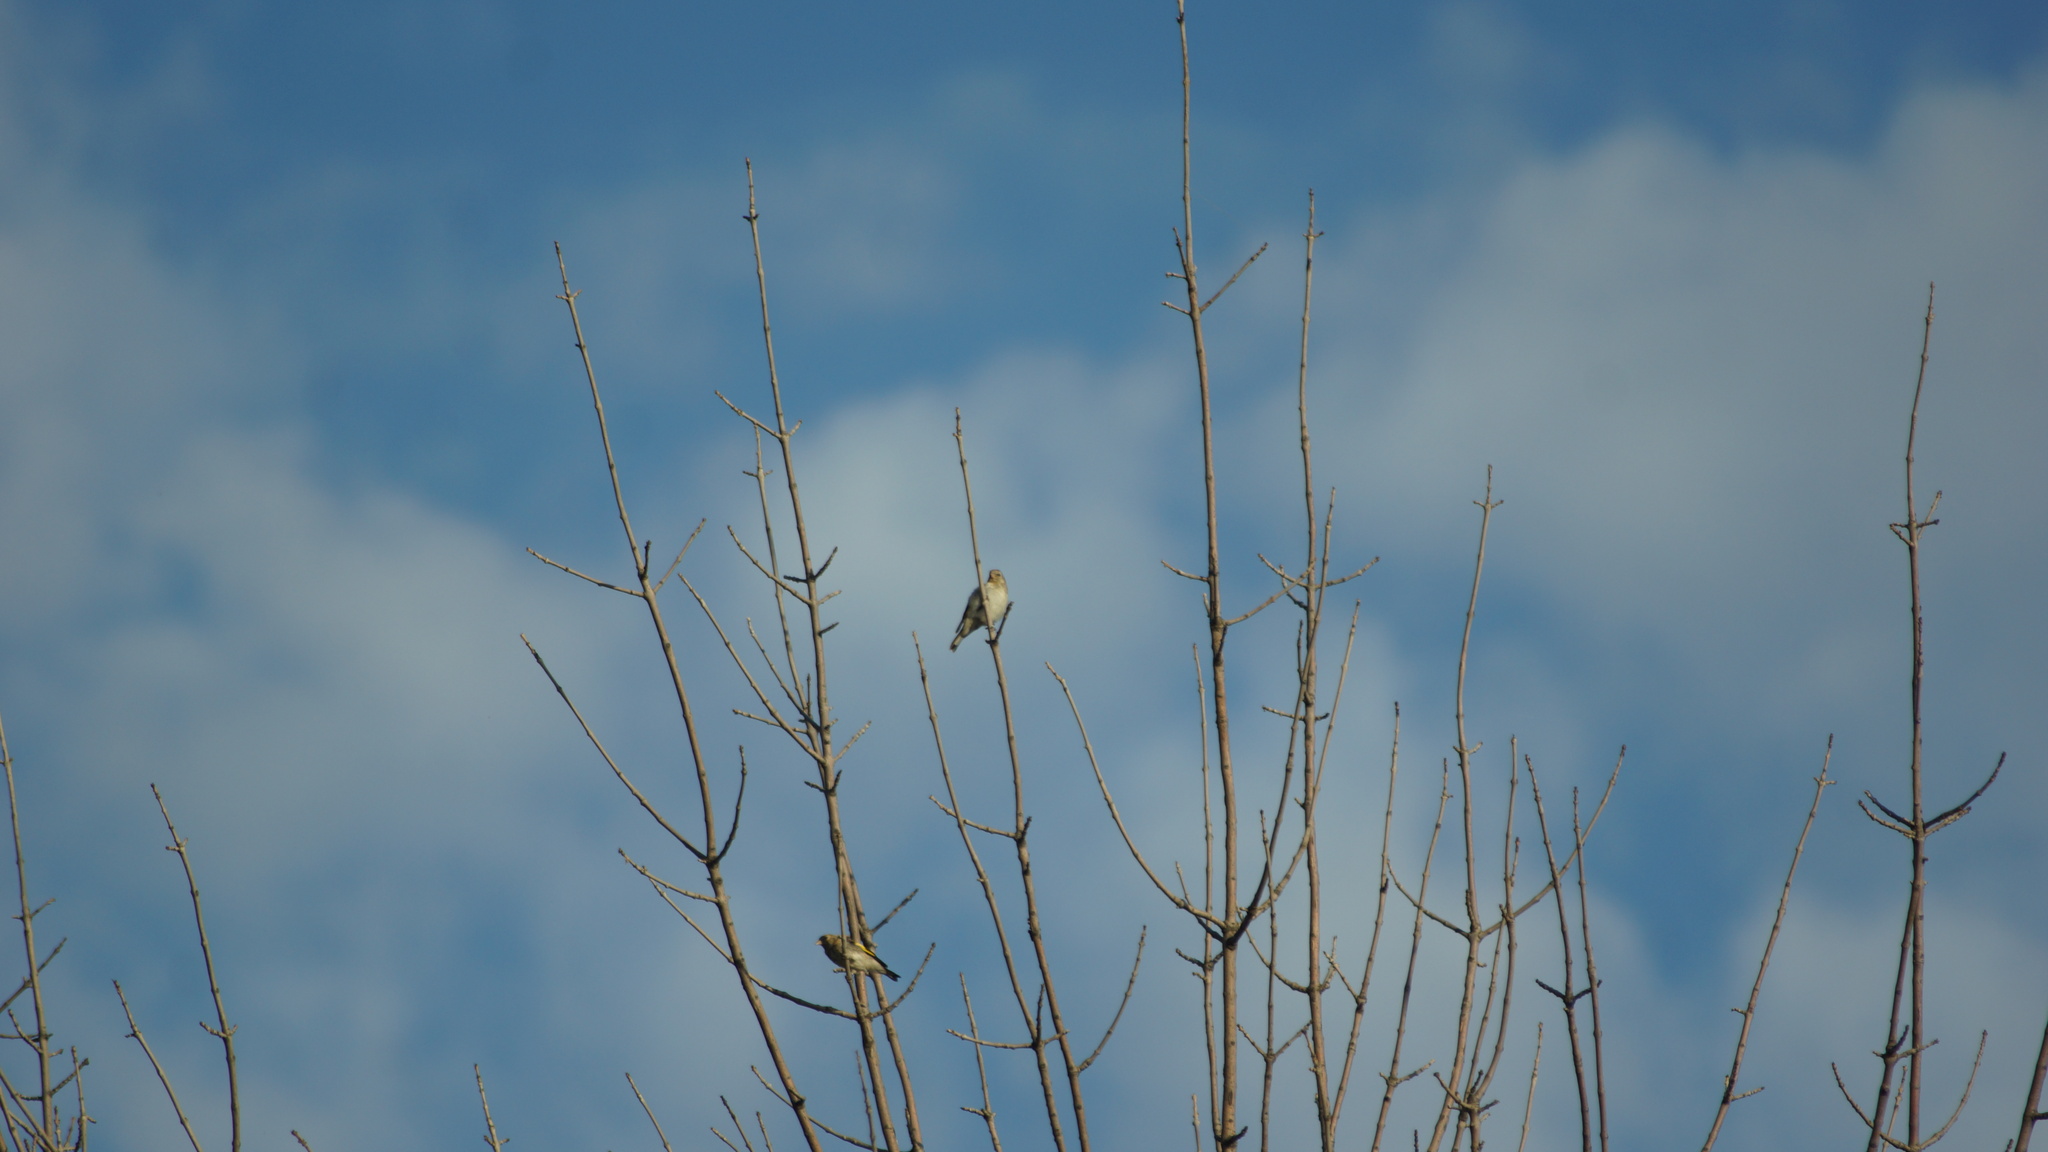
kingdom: Animalia
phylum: Chordata
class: Aves
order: Passeriformes
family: Fringillidae
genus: Carduelis
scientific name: Carduelis carduelis
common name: European goldfinch
